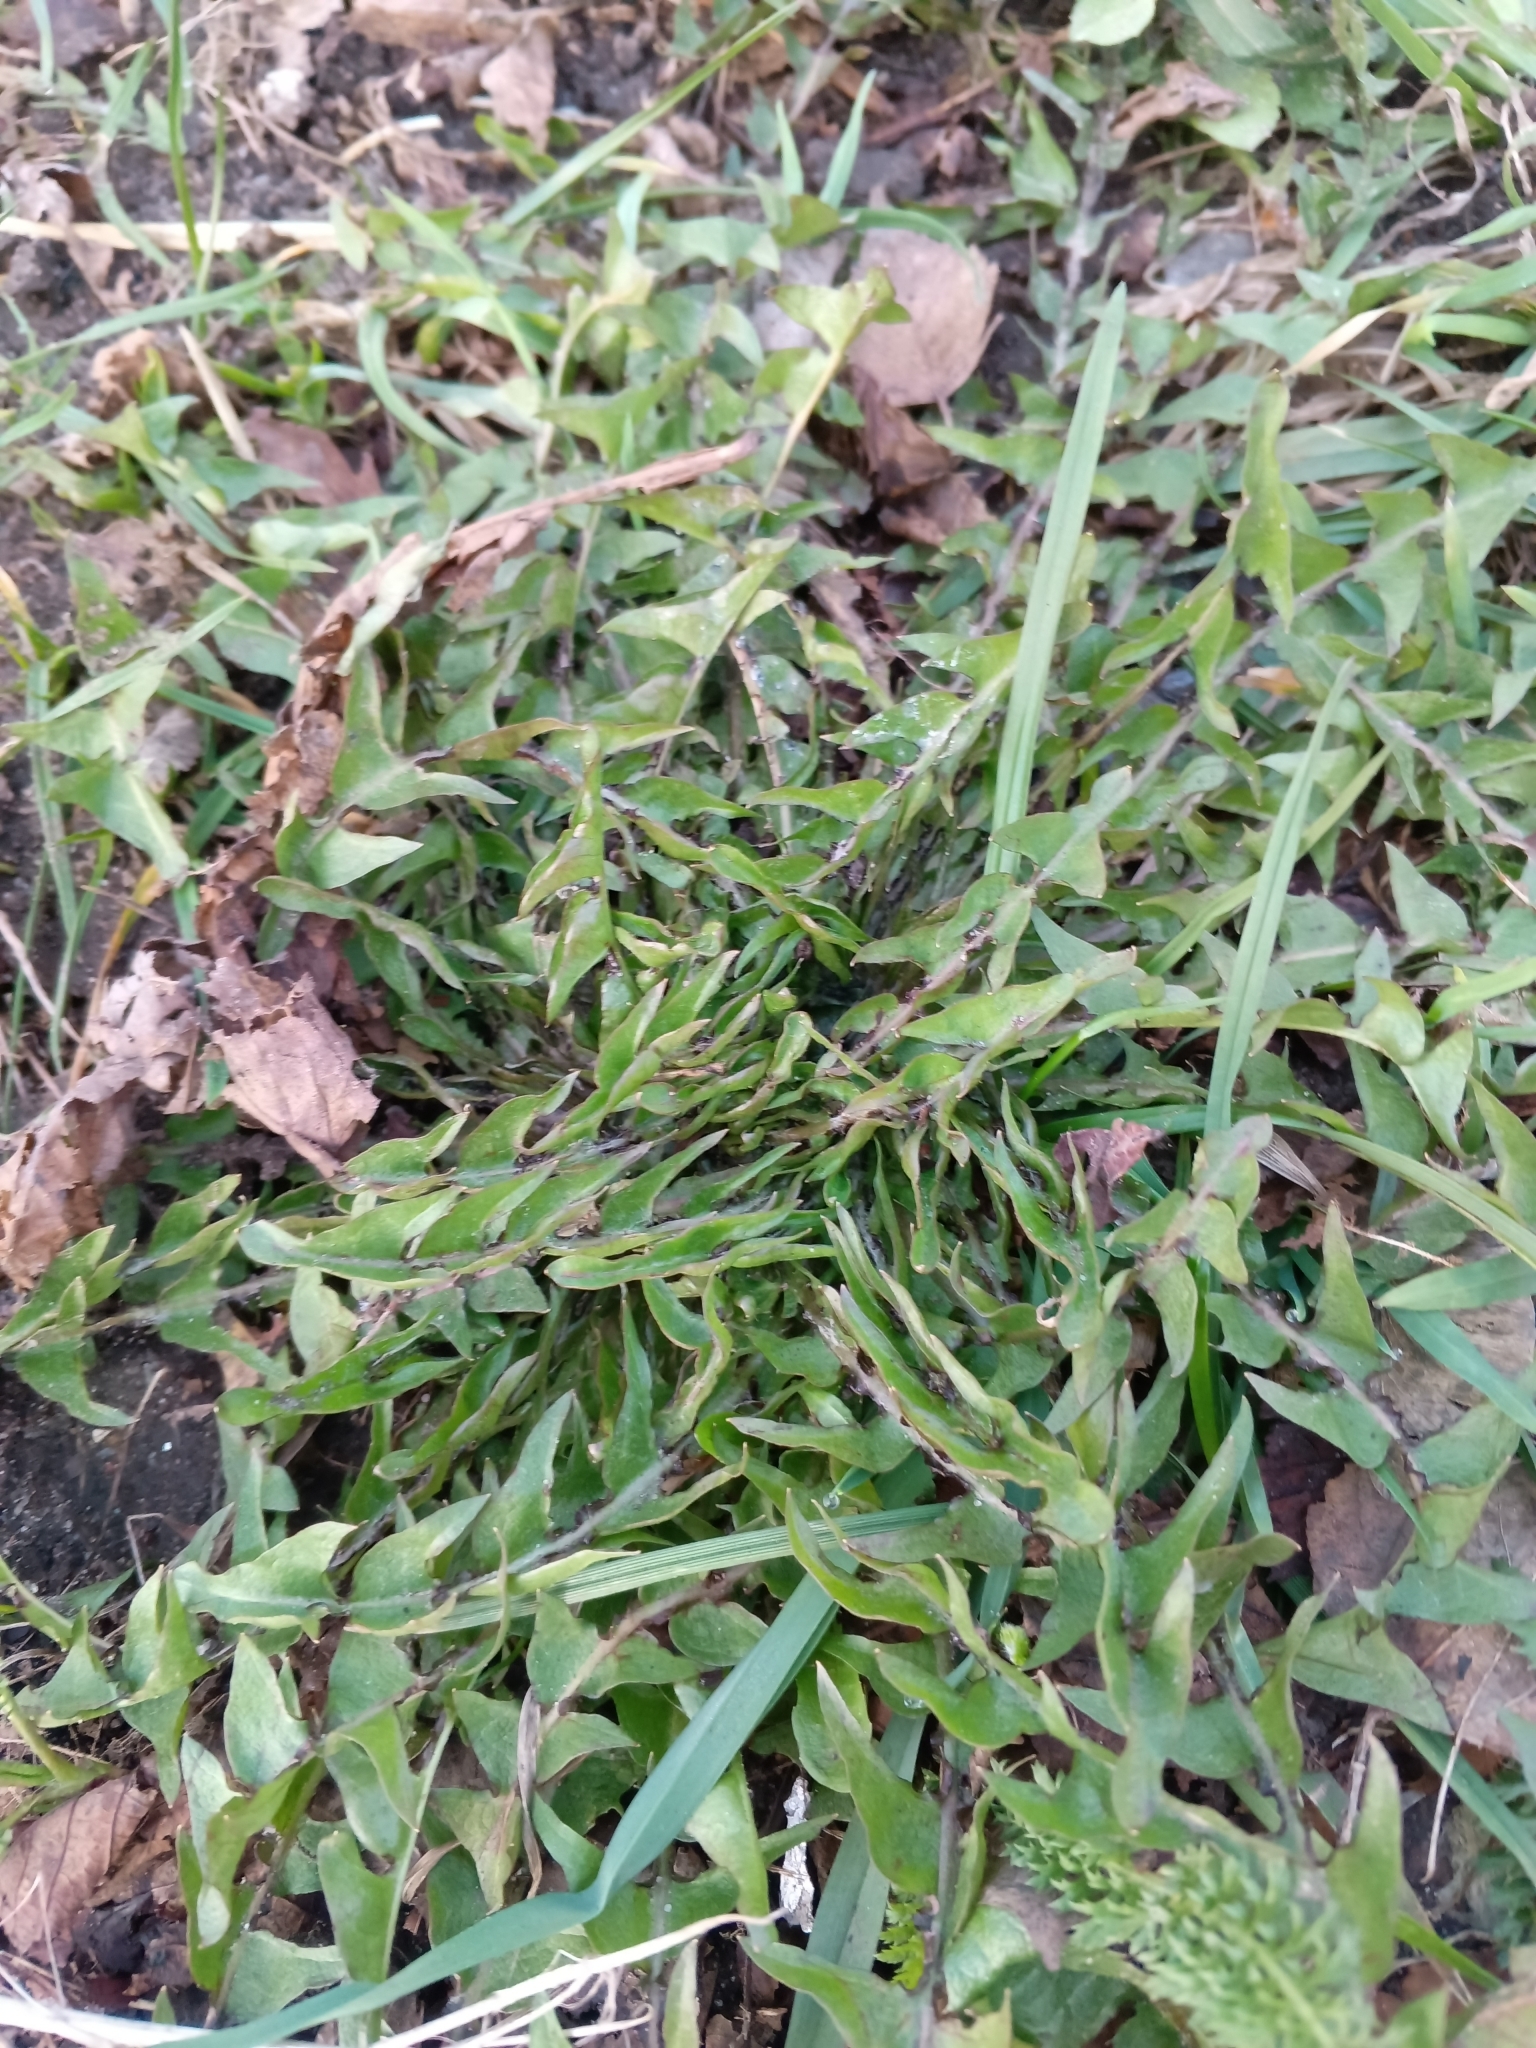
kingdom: Plantae
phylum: Tracheophyta
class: Magnoliopsida
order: Asterales
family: Asteraceae
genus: Taraxacum
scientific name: Taraxacum officinale
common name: Common dandelion
